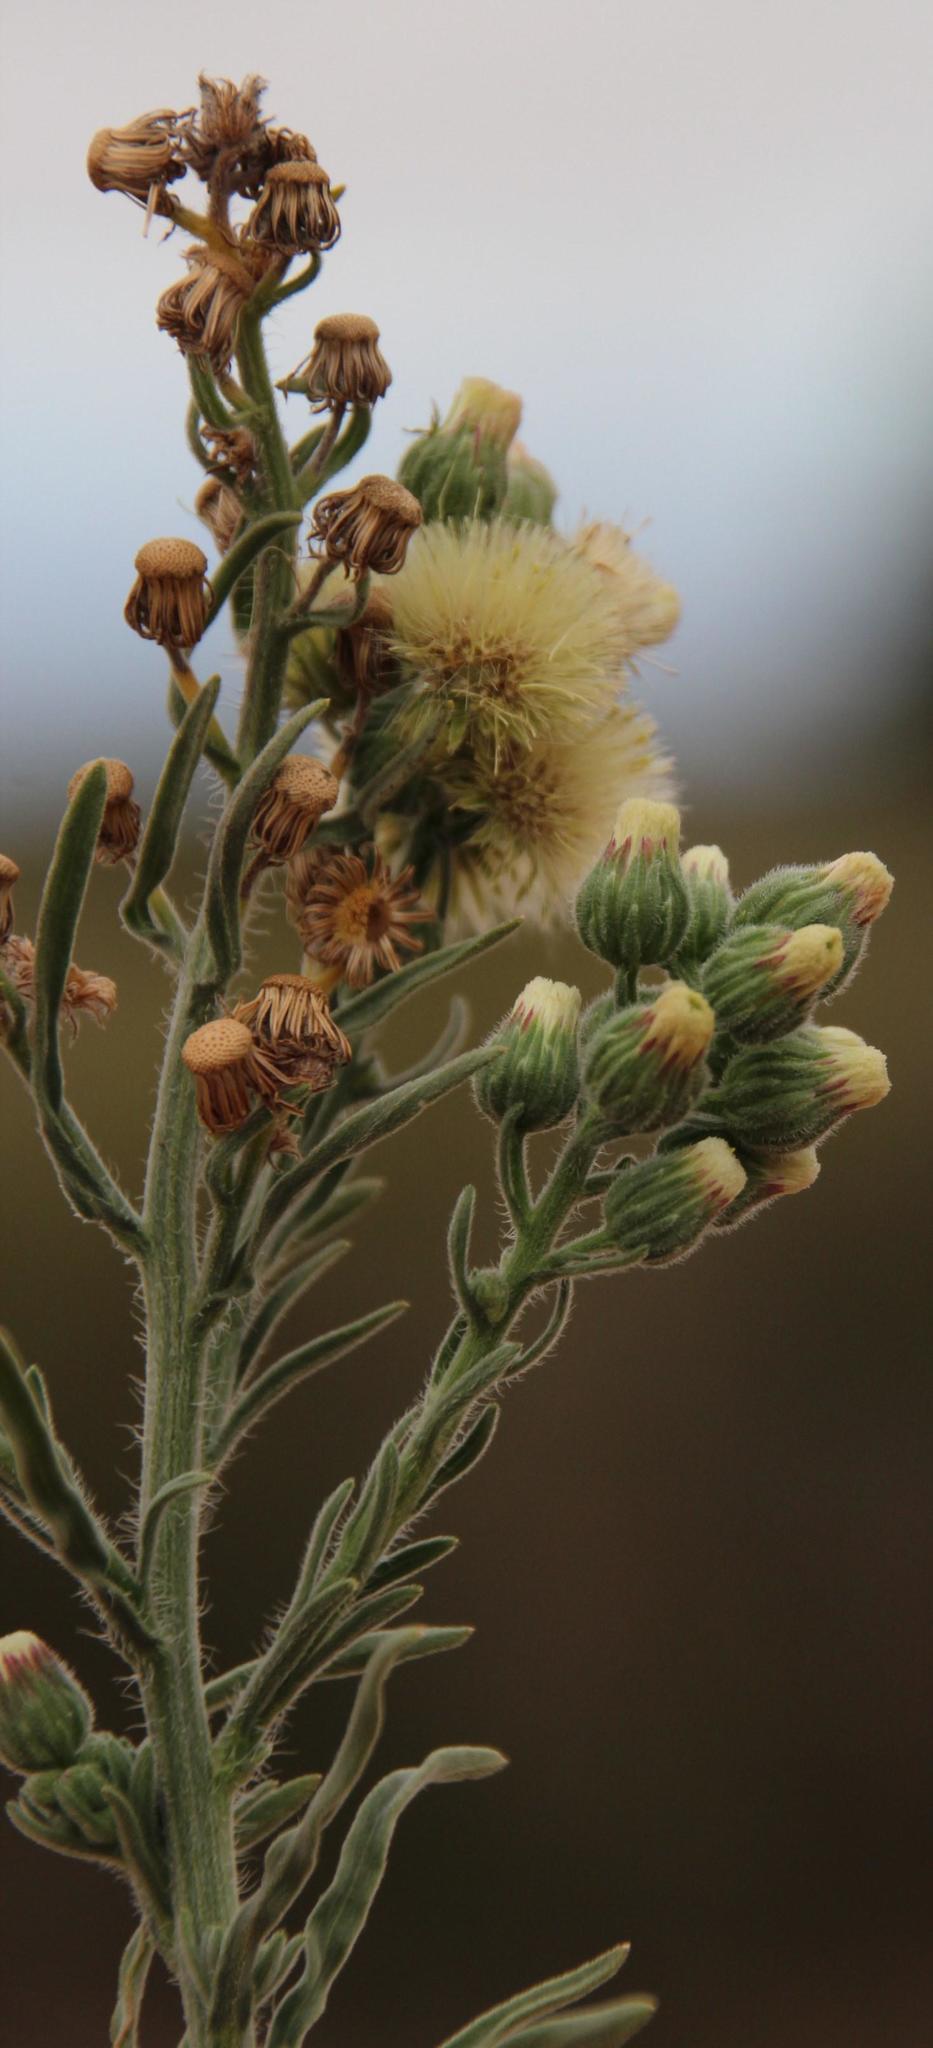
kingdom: Plantae
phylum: Tracheophyta
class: Magnoliopsida
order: Asterales
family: Asteraceae
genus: Erigeron
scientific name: Erigeron bonariensis
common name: Argentine fleabane
